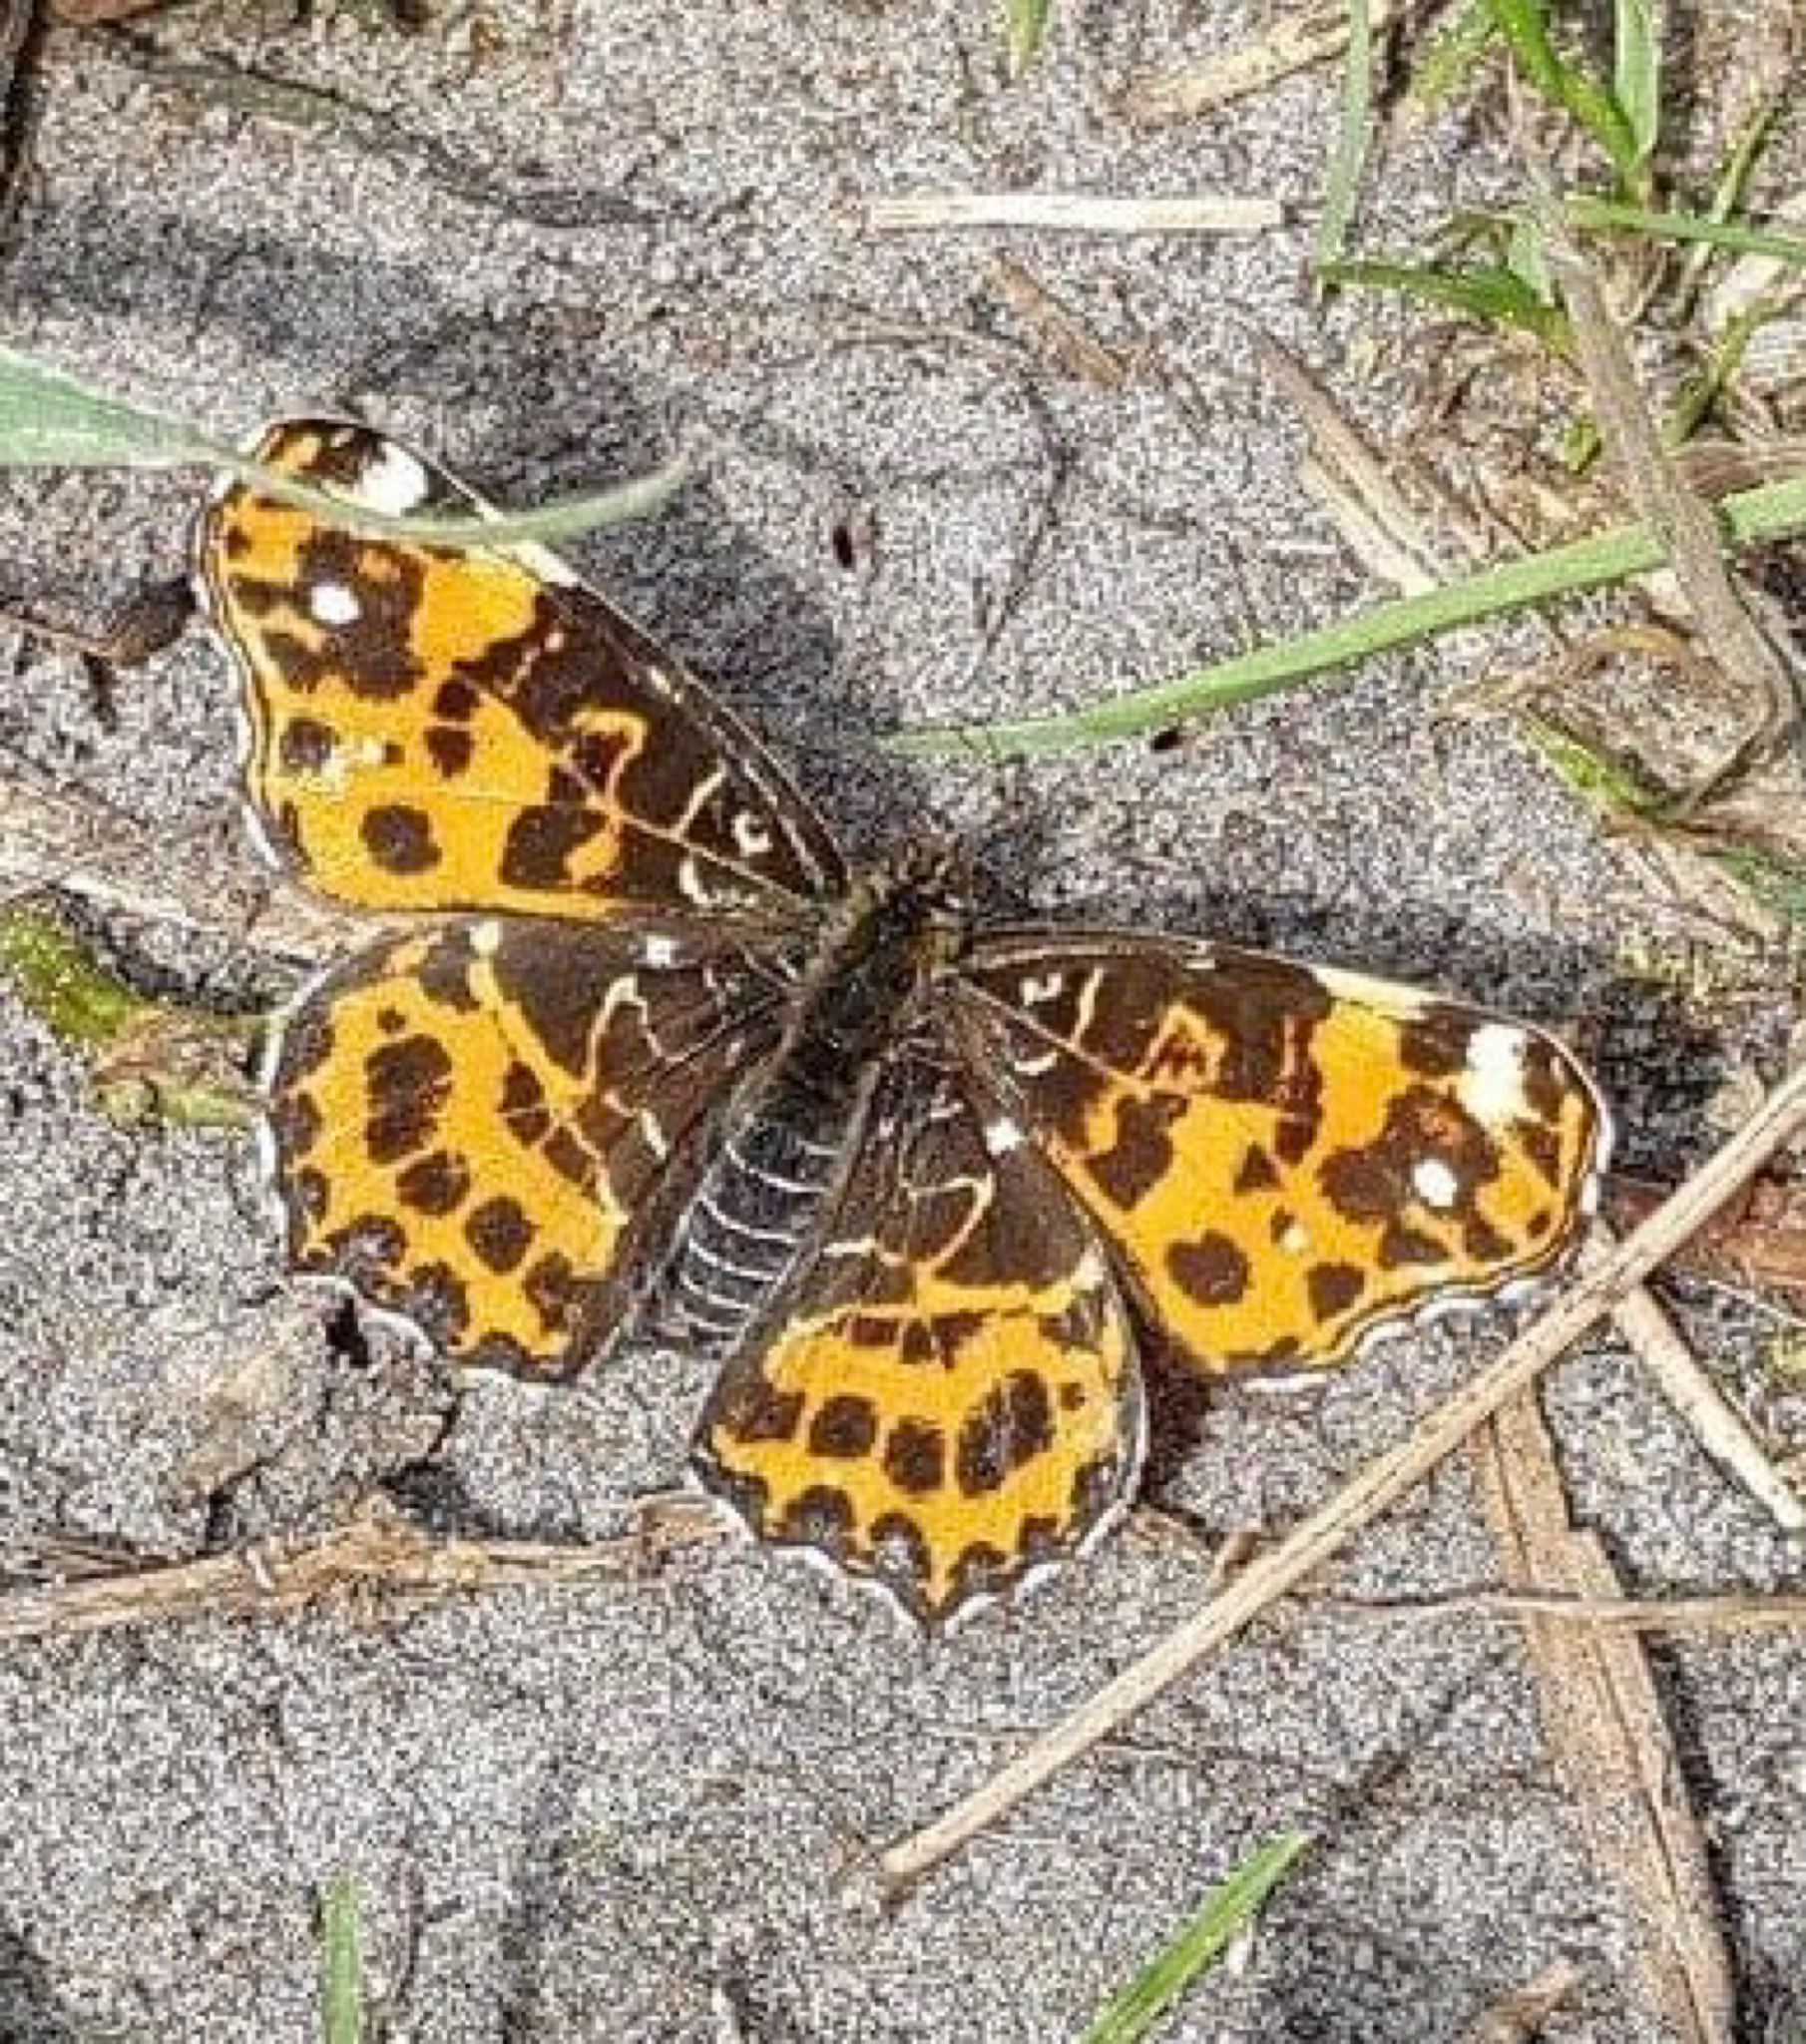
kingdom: Animalia
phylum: Arthropoda
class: Insecta
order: Lepidoptera
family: Nymphalidae
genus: Araschnia
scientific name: Araschnia levana
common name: Map butterfly
